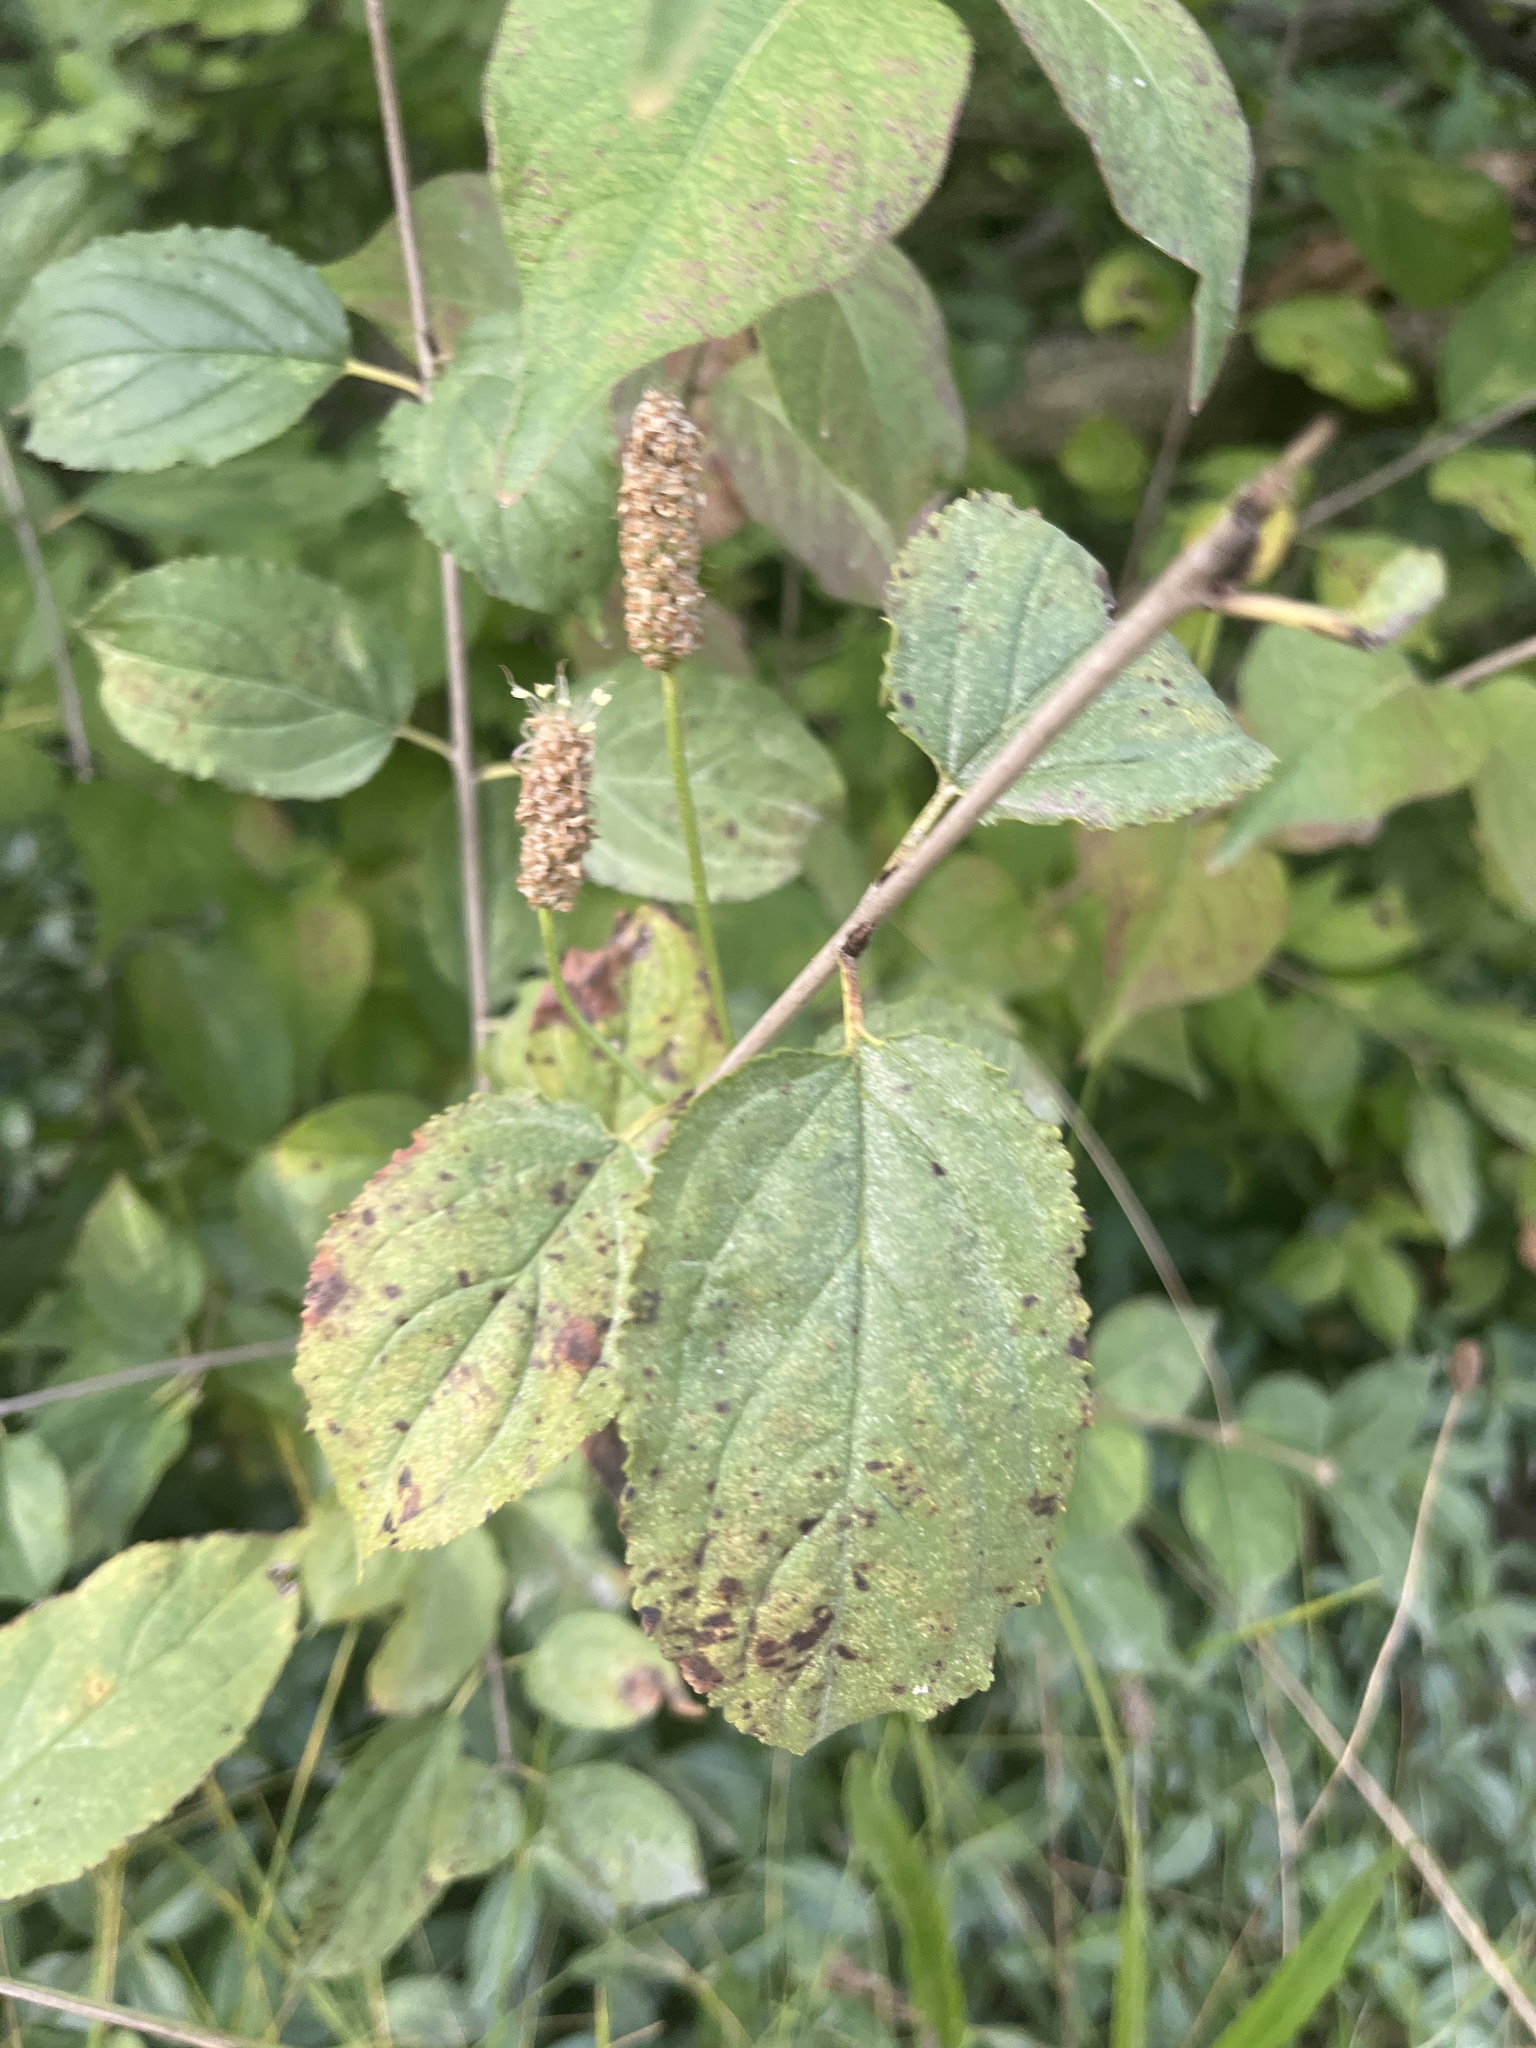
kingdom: Plantae
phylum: Tracheophyta
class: Magnoliopsida
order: Rosales
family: Rhamnaceae
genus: Rhamnus
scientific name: Rhamnus cathartica
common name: Common buckthorn
